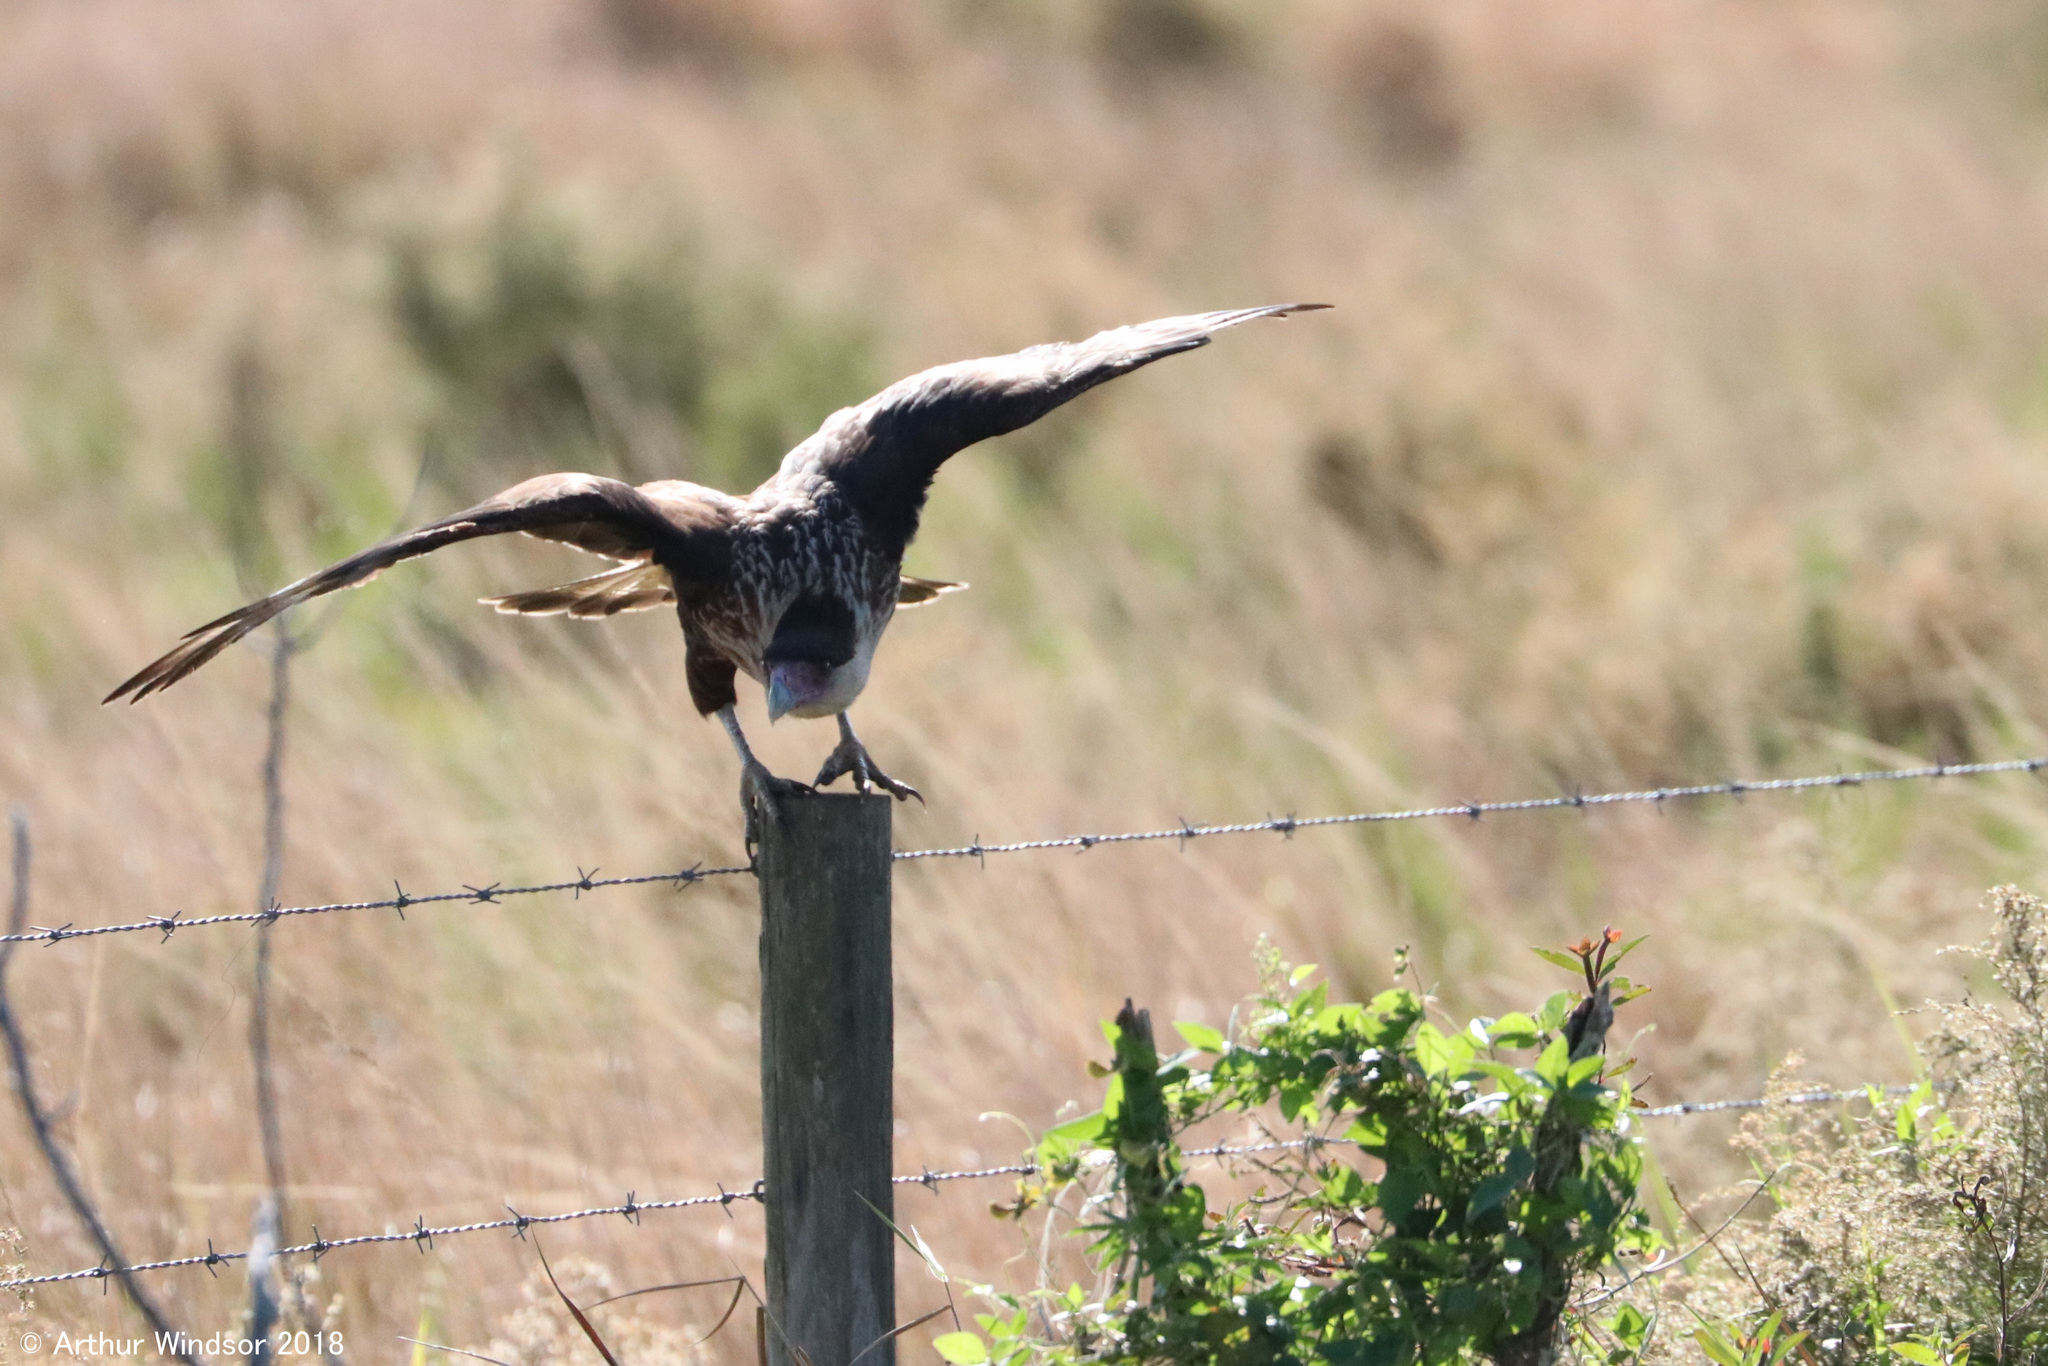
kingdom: Animalia
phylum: Chordata
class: Aves
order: Falconiformes
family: Falconidae
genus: Caracara
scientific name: Caracara plancus
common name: Southern caracara
